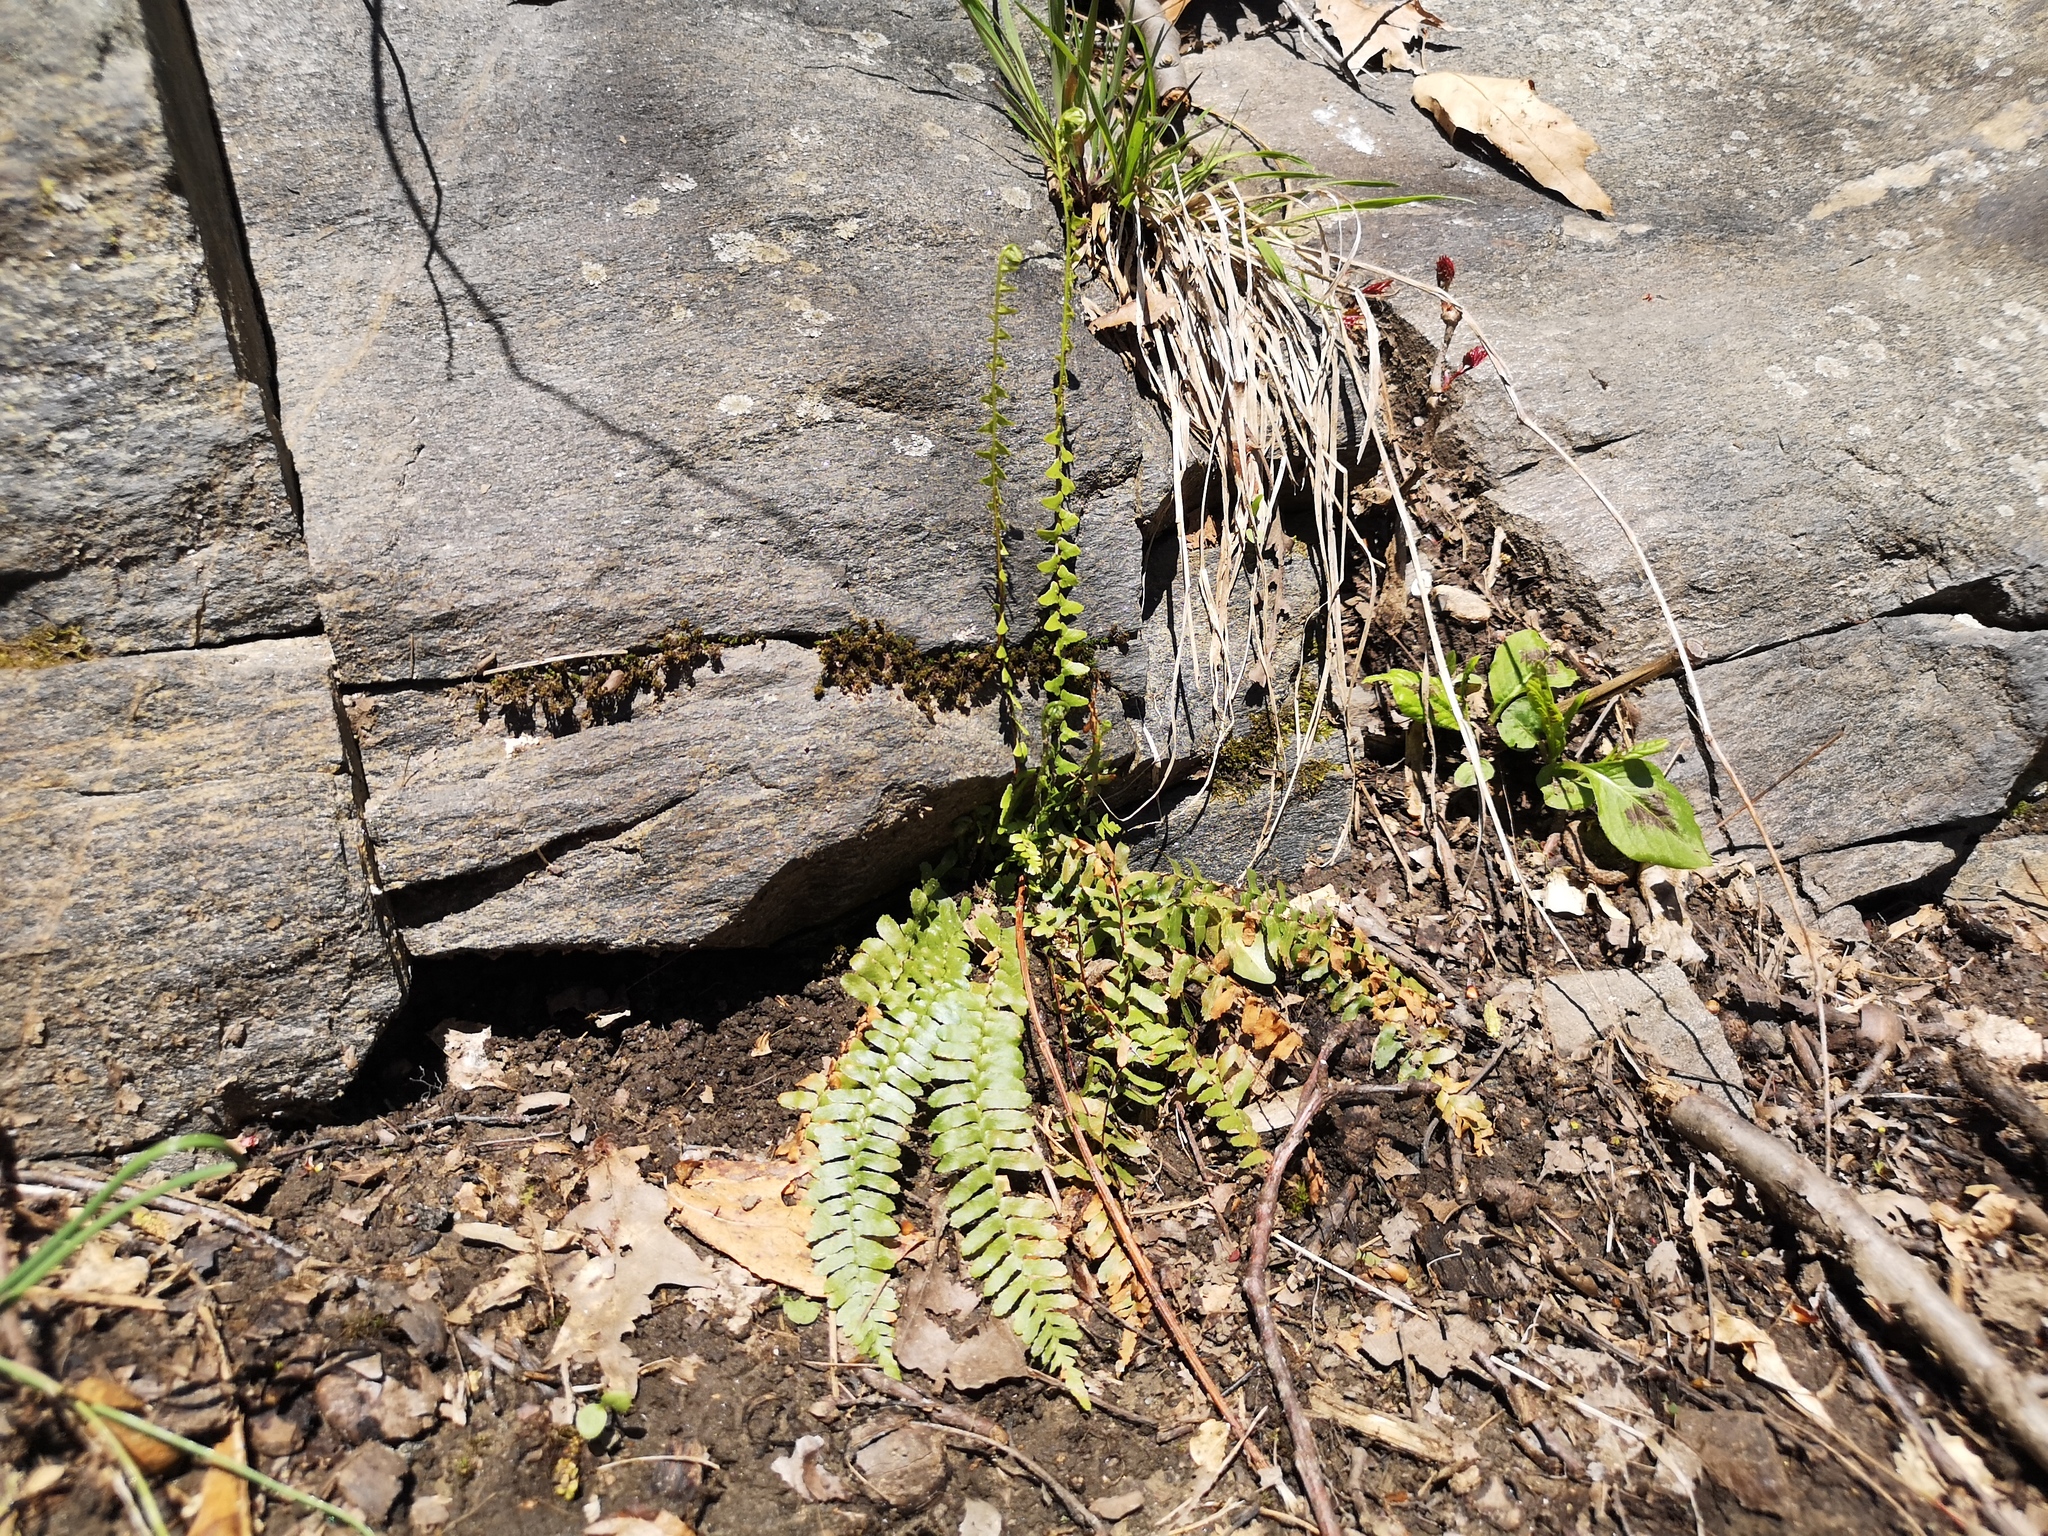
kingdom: Plantae
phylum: Tracheophyta
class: Polypodiopsida
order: Polypodiales
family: Aspleniaceae
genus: Asplenium
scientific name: Asplenium platyneuron
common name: Ebony spleenwort
